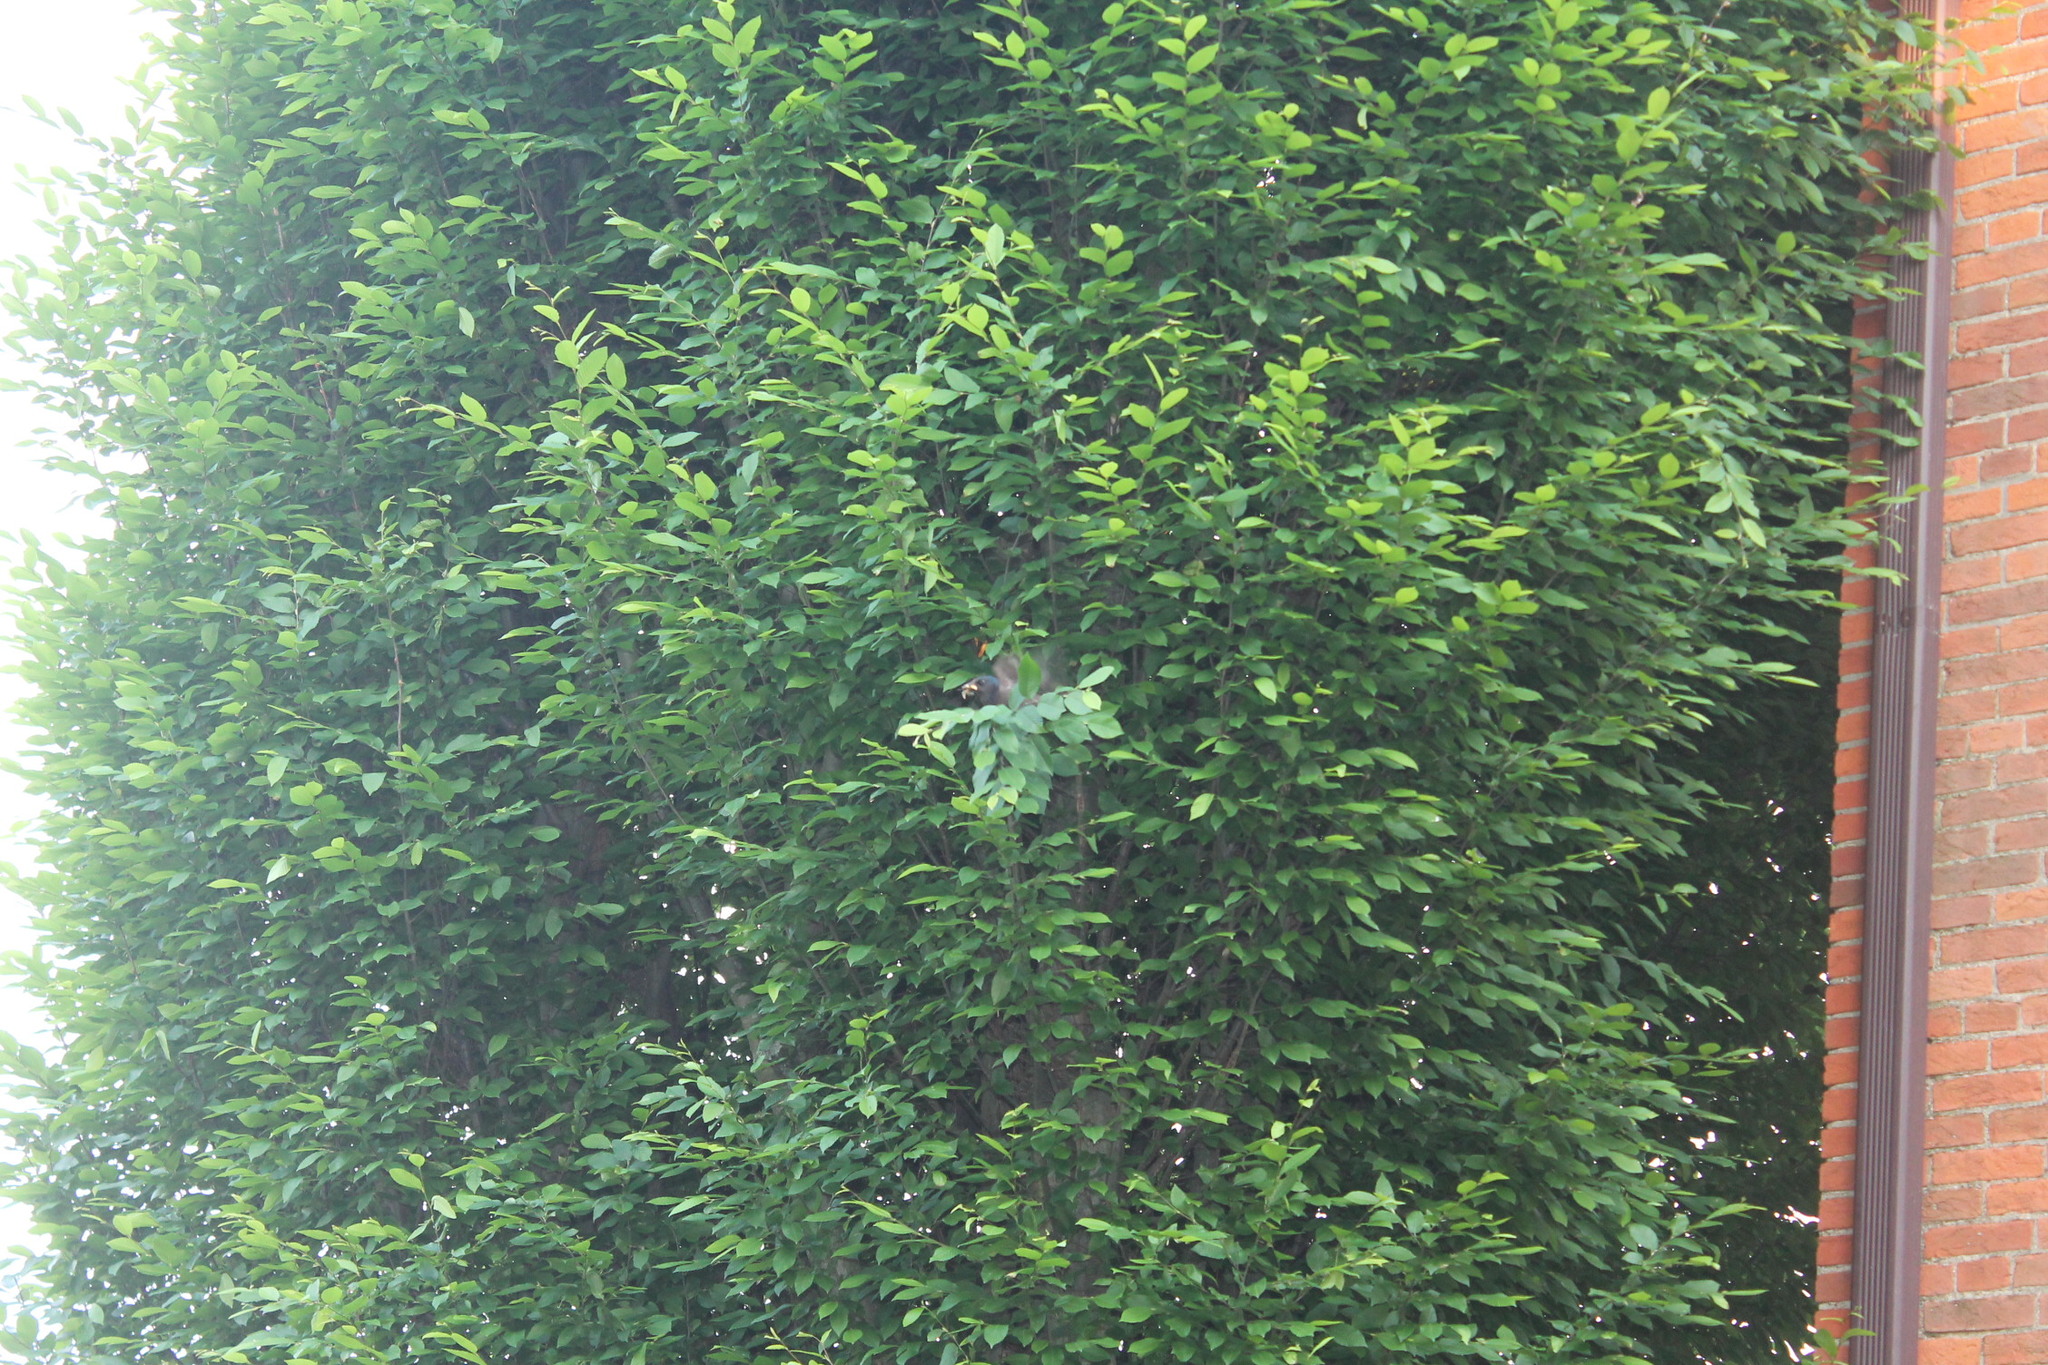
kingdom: Protozoa
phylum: Metamonada
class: Trichomonadea
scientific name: Trichomonadea
